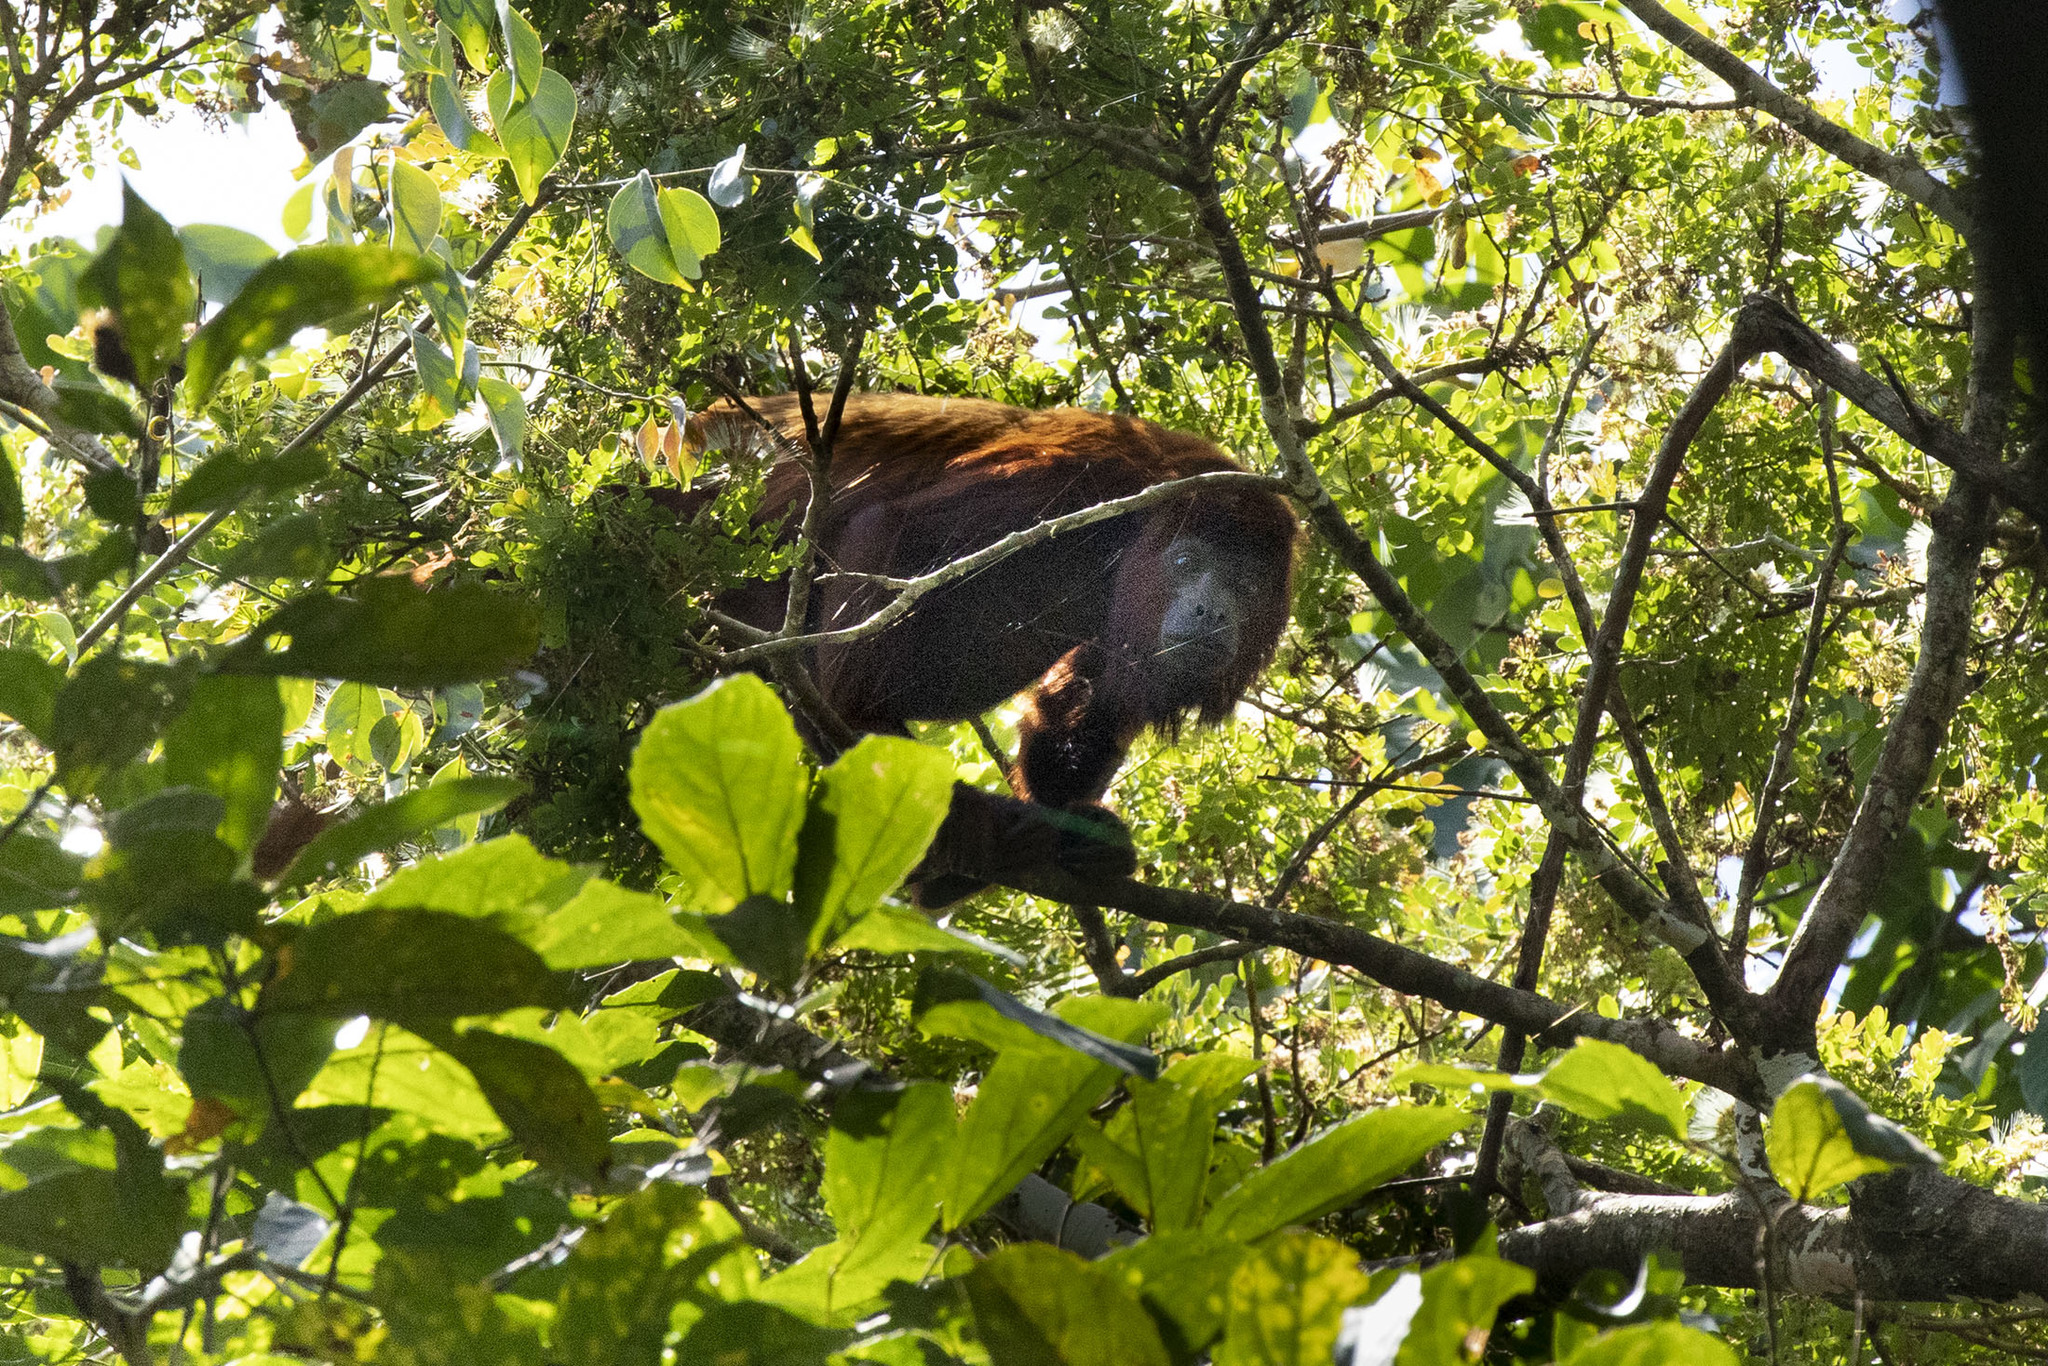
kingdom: Animalia
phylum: Chordata
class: Mammalia
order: Primates
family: Atelidae
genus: Alouatta
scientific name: Alouatta seniculus
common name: Venezuelan red howler
